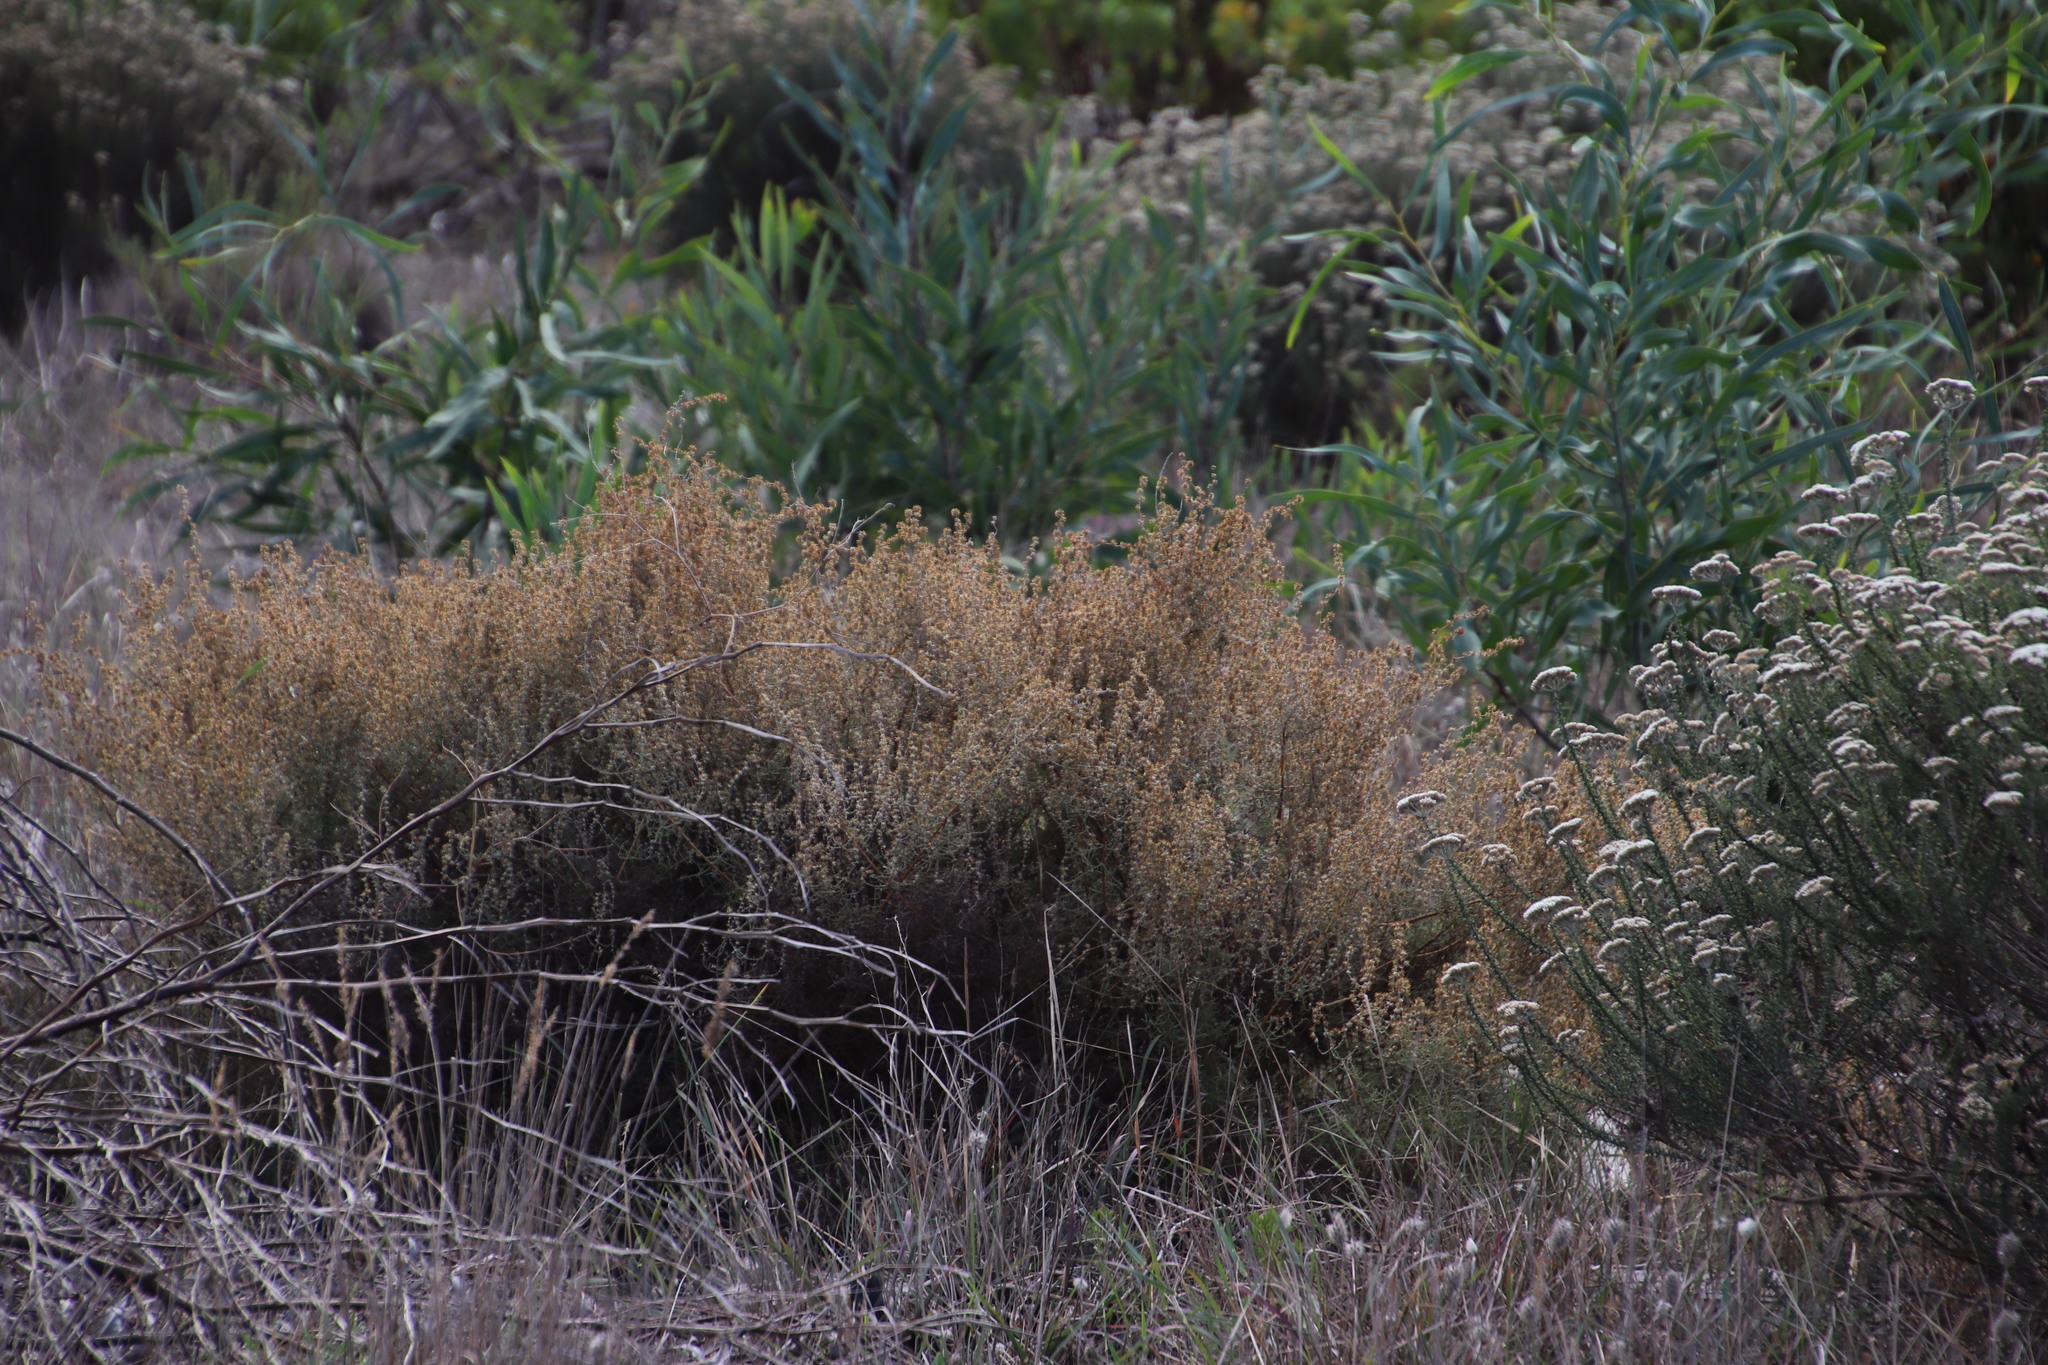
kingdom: Plantae
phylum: Tracheophyta
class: Magnoliopsida
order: Asterales
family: Asteraceae
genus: Seriphium
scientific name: Seriphium plumosum
